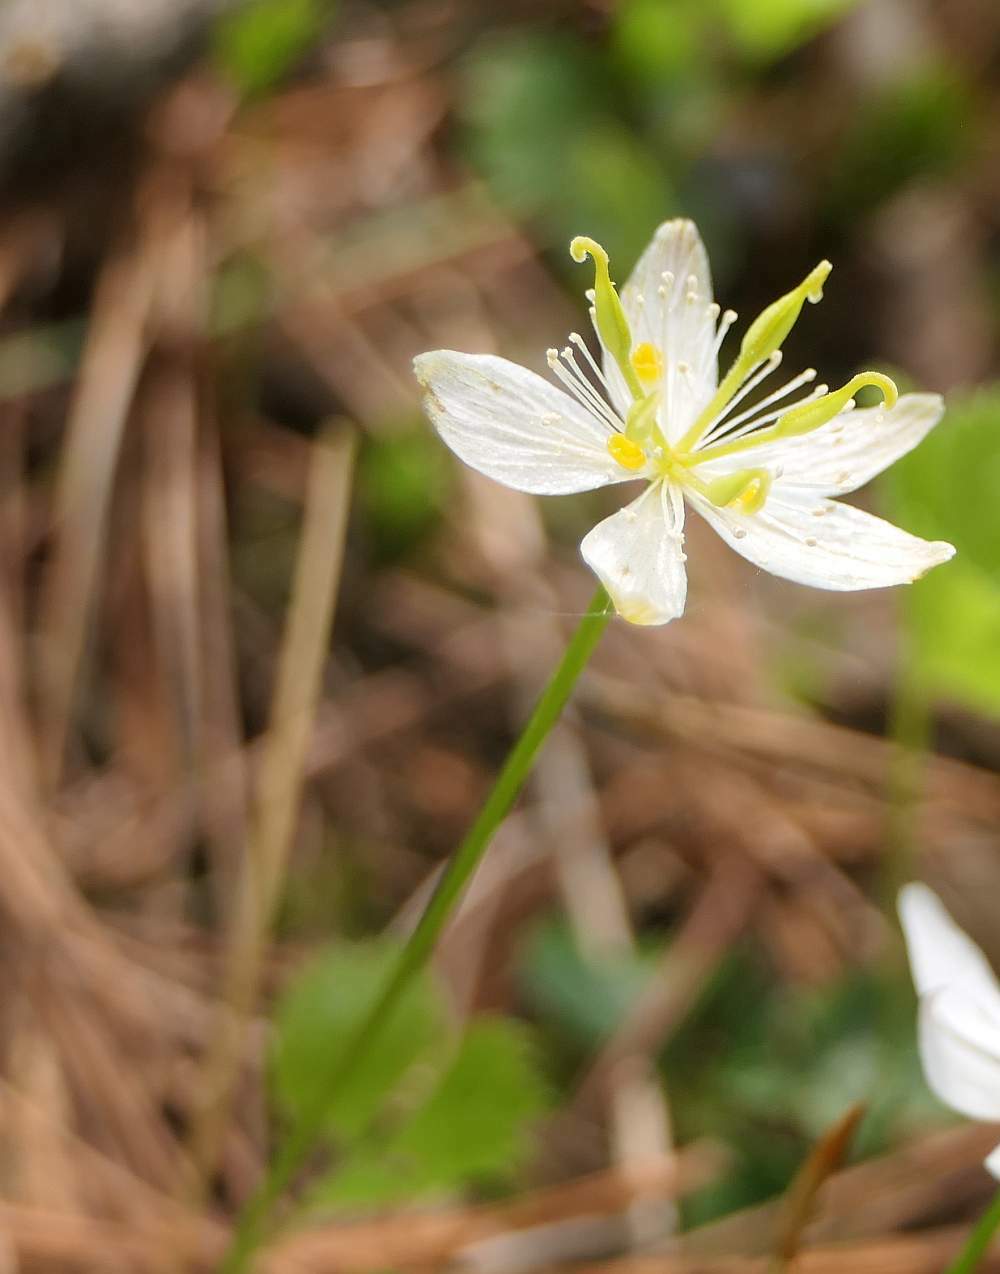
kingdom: Plantae
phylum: Tracheophyta
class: Magnoliopsida
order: Ranunculales
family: Ranunculaceae
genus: Coptis
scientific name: Coptis trifolia
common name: Canker-root
